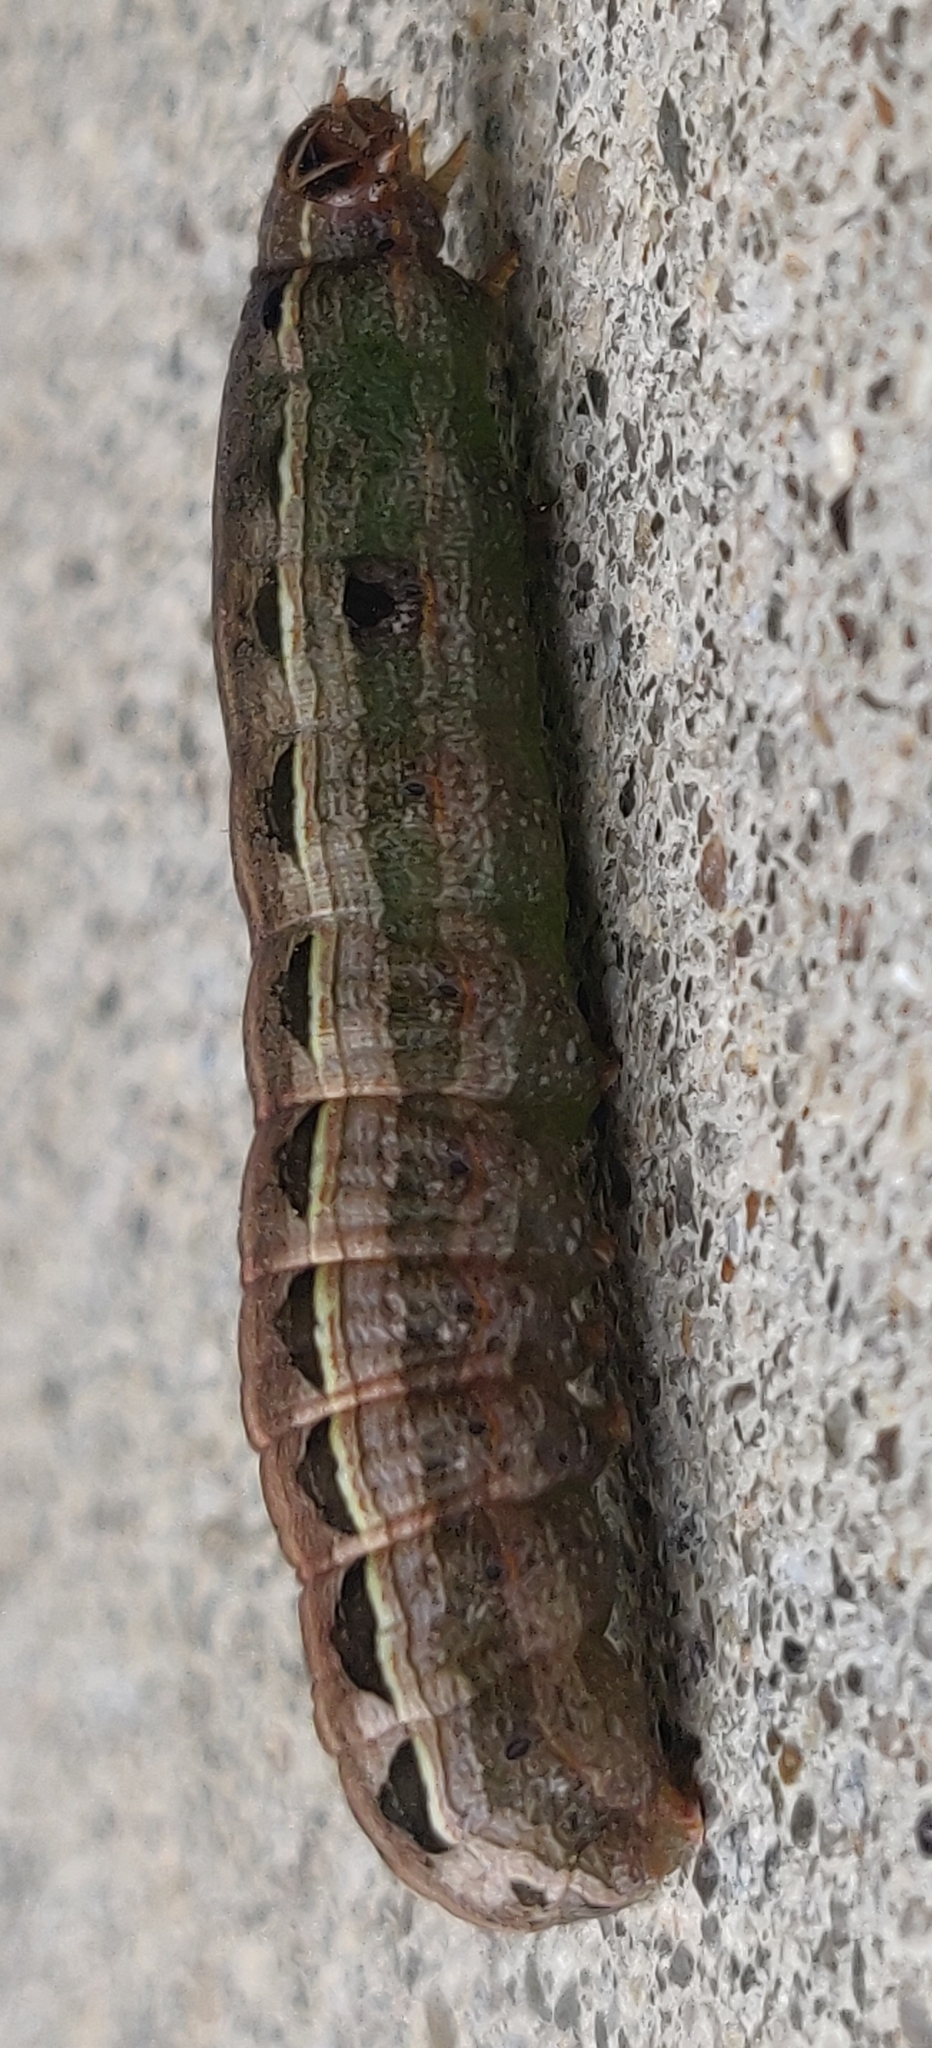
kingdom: Animalia
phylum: Arthropoda
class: Insecta
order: Lepidoptera
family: Noctuidae
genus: Spodoptera
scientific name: Spodoptera ornithogalli
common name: Yellow-striped armyworm
